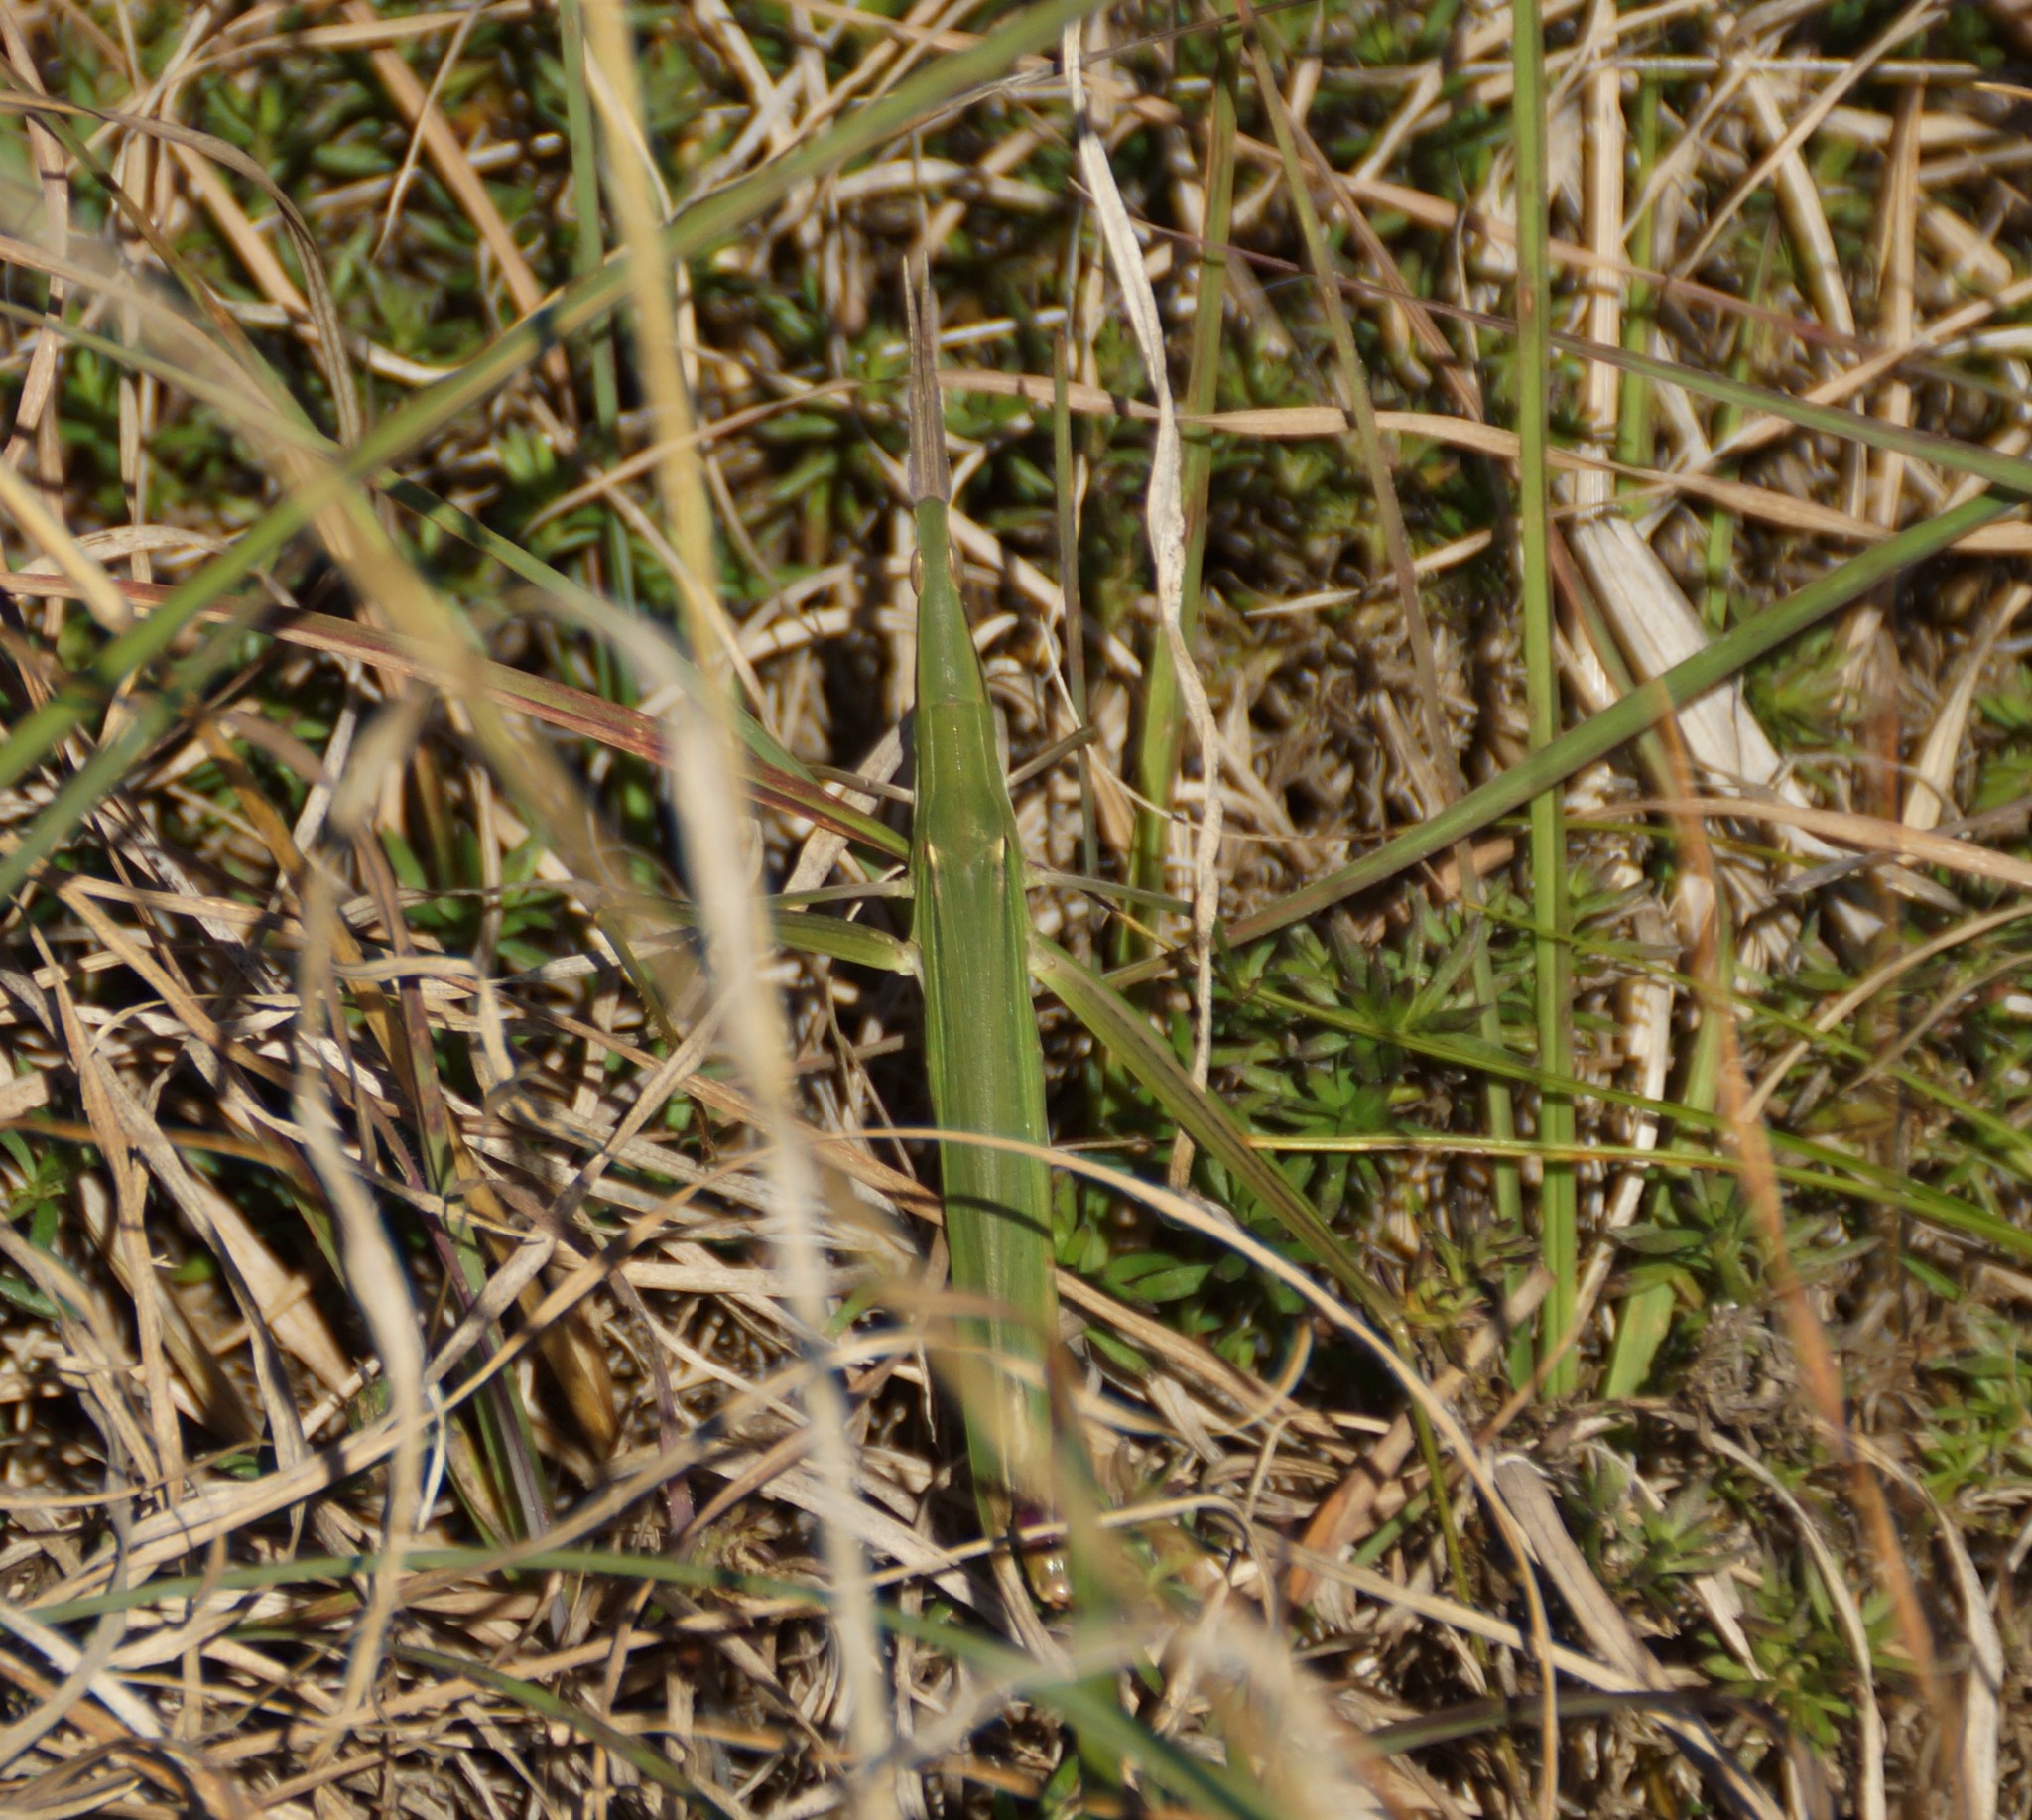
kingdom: Animalia
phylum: Arthropoda
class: Insecta
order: Orthoptera
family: Acrididae
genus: Acrida
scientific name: Acrida conica
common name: Giant green slantface
